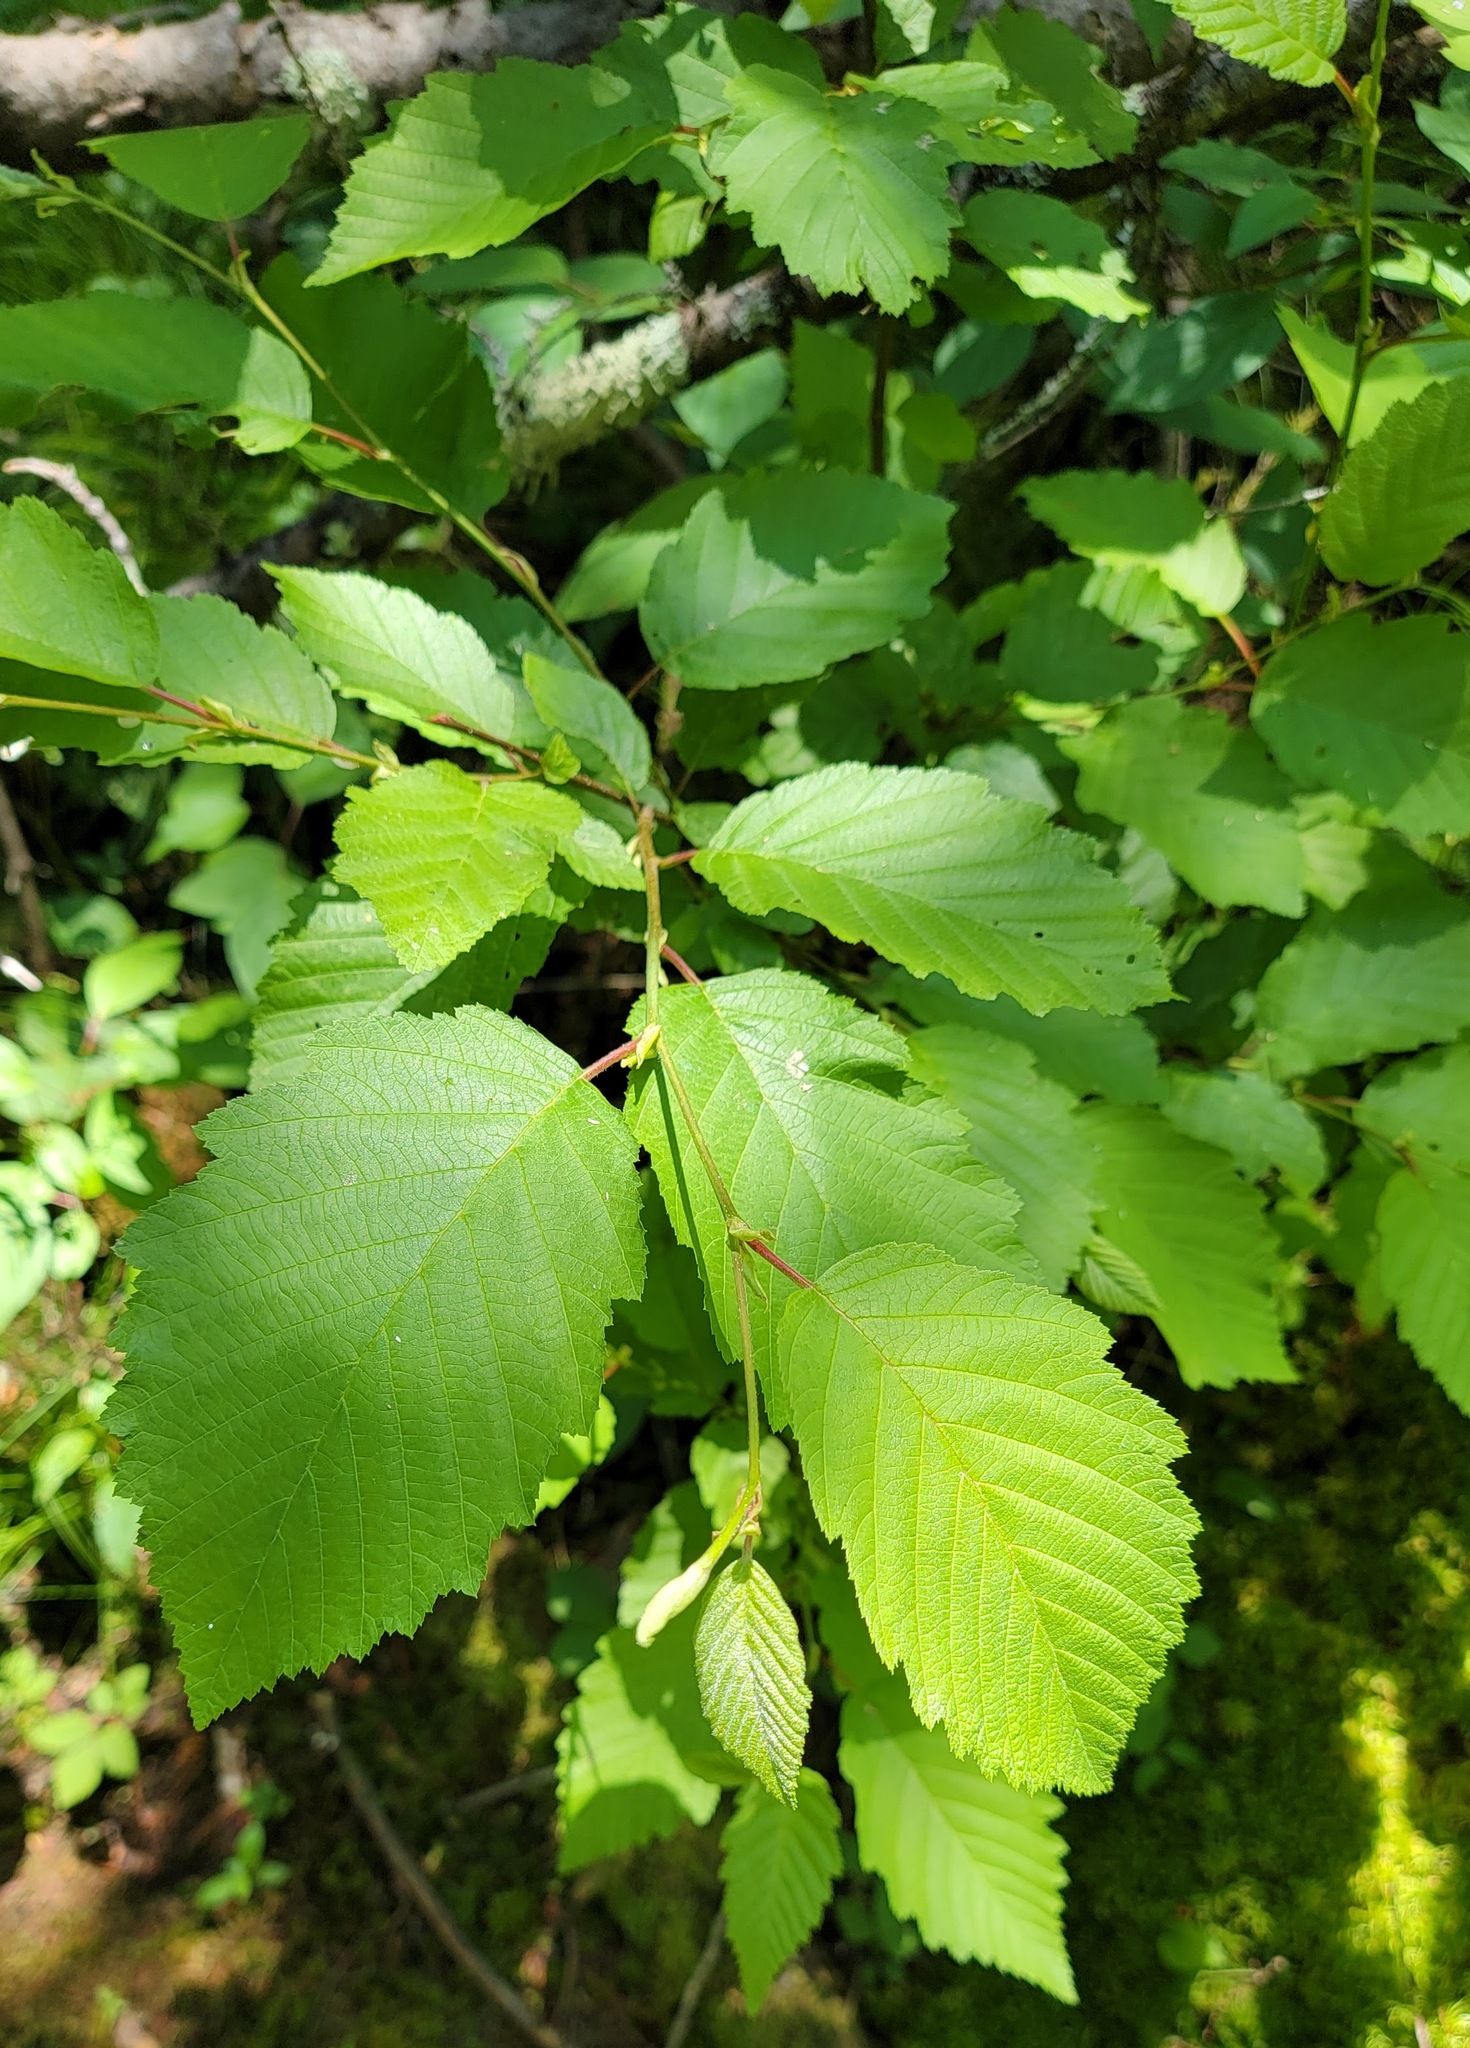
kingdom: Plantae
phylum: Tracheophyta
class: Magnoliopsida
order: Fagales
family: Betulaceae
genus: Alnus
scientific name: Alnus incana
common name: Grey alder
